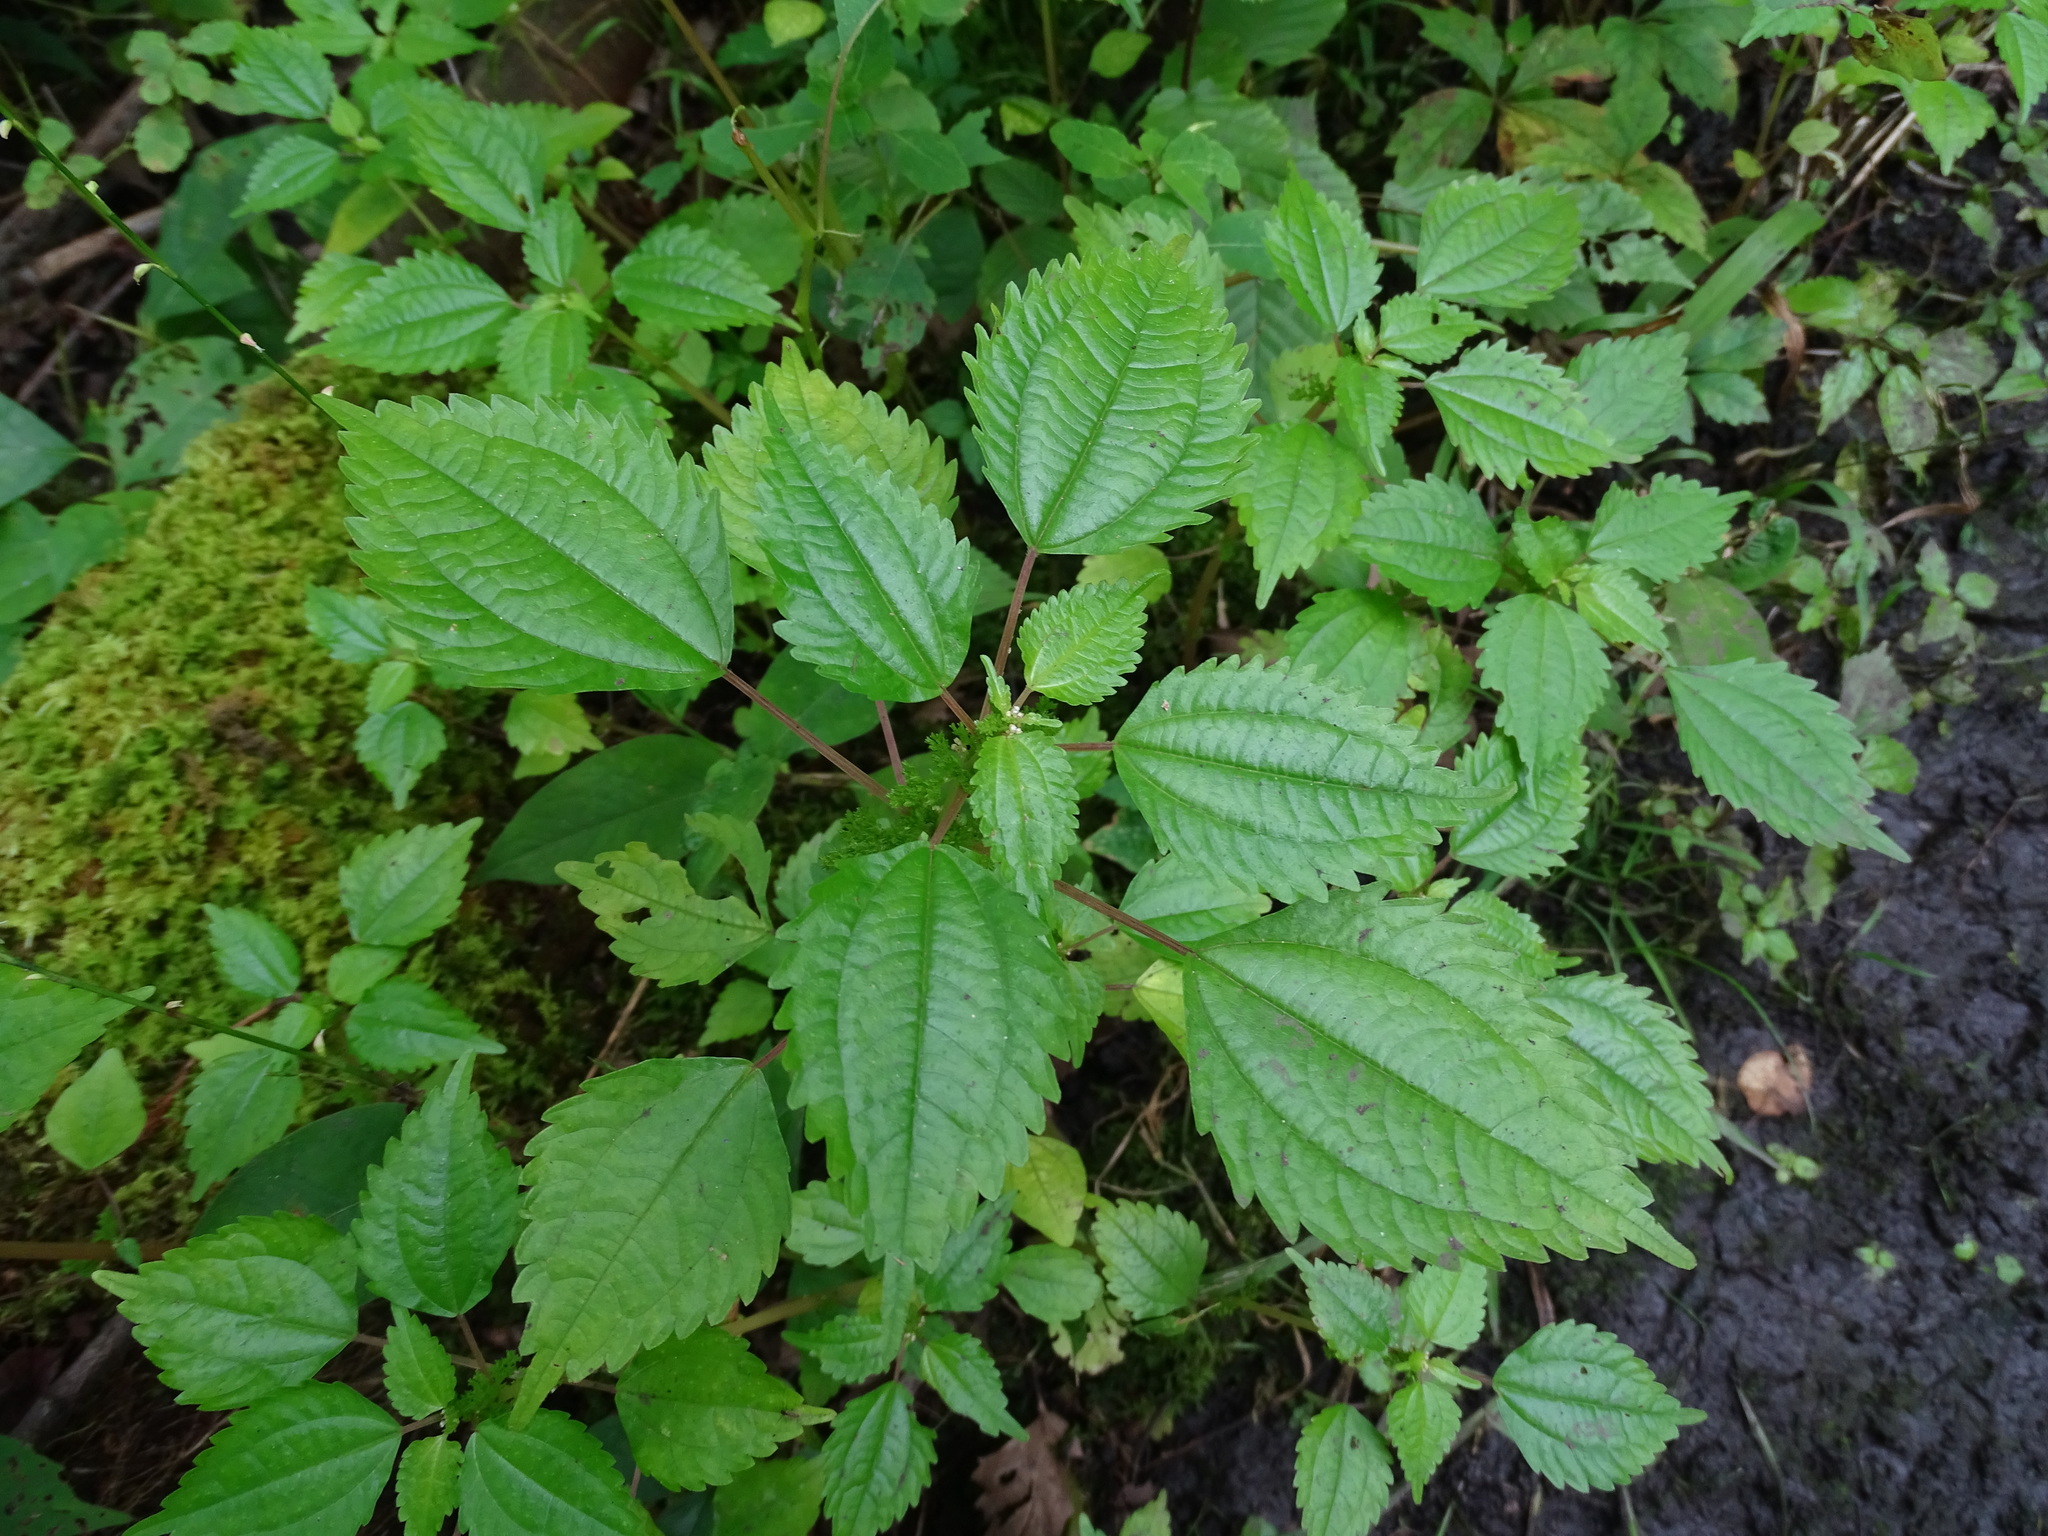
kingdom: Plantae
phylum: Tracheophyta
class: Magnoliopsida
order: Rosales
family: Urticaceae
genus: Pilea
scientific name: Pilea pumila
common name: Clearweed
